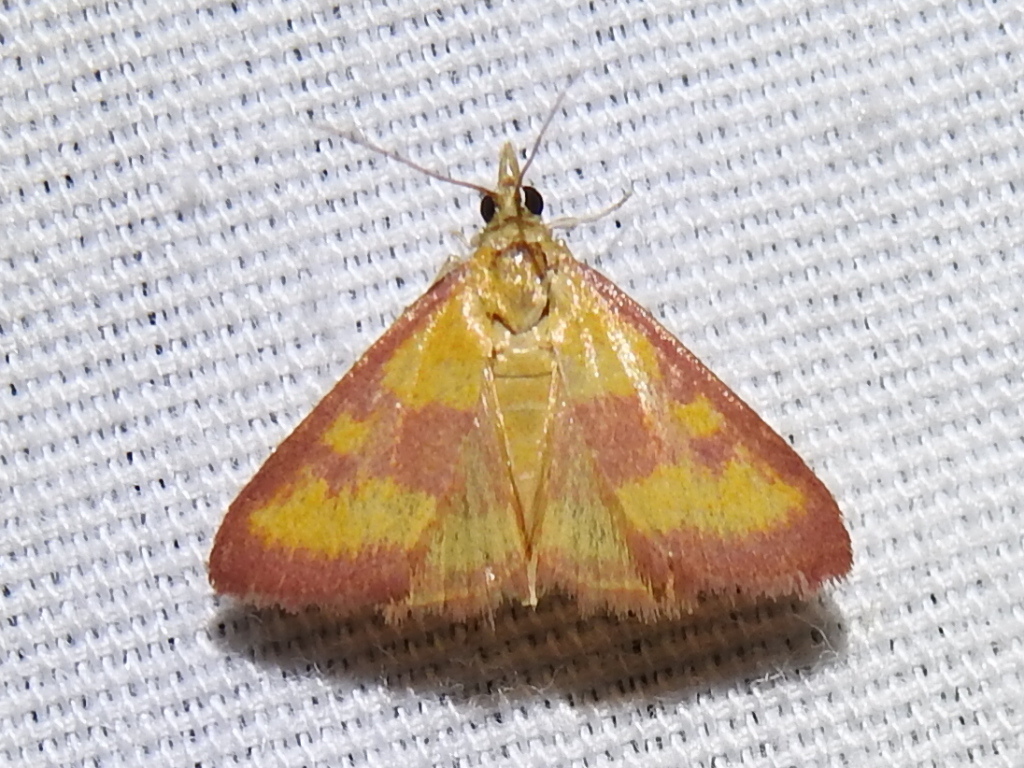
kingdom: Animalia
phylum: Arthropoda
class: Insecta
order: Lepidoptera
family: Crambidae
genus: Pyrausta
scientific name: Pyrausta laticlavia
